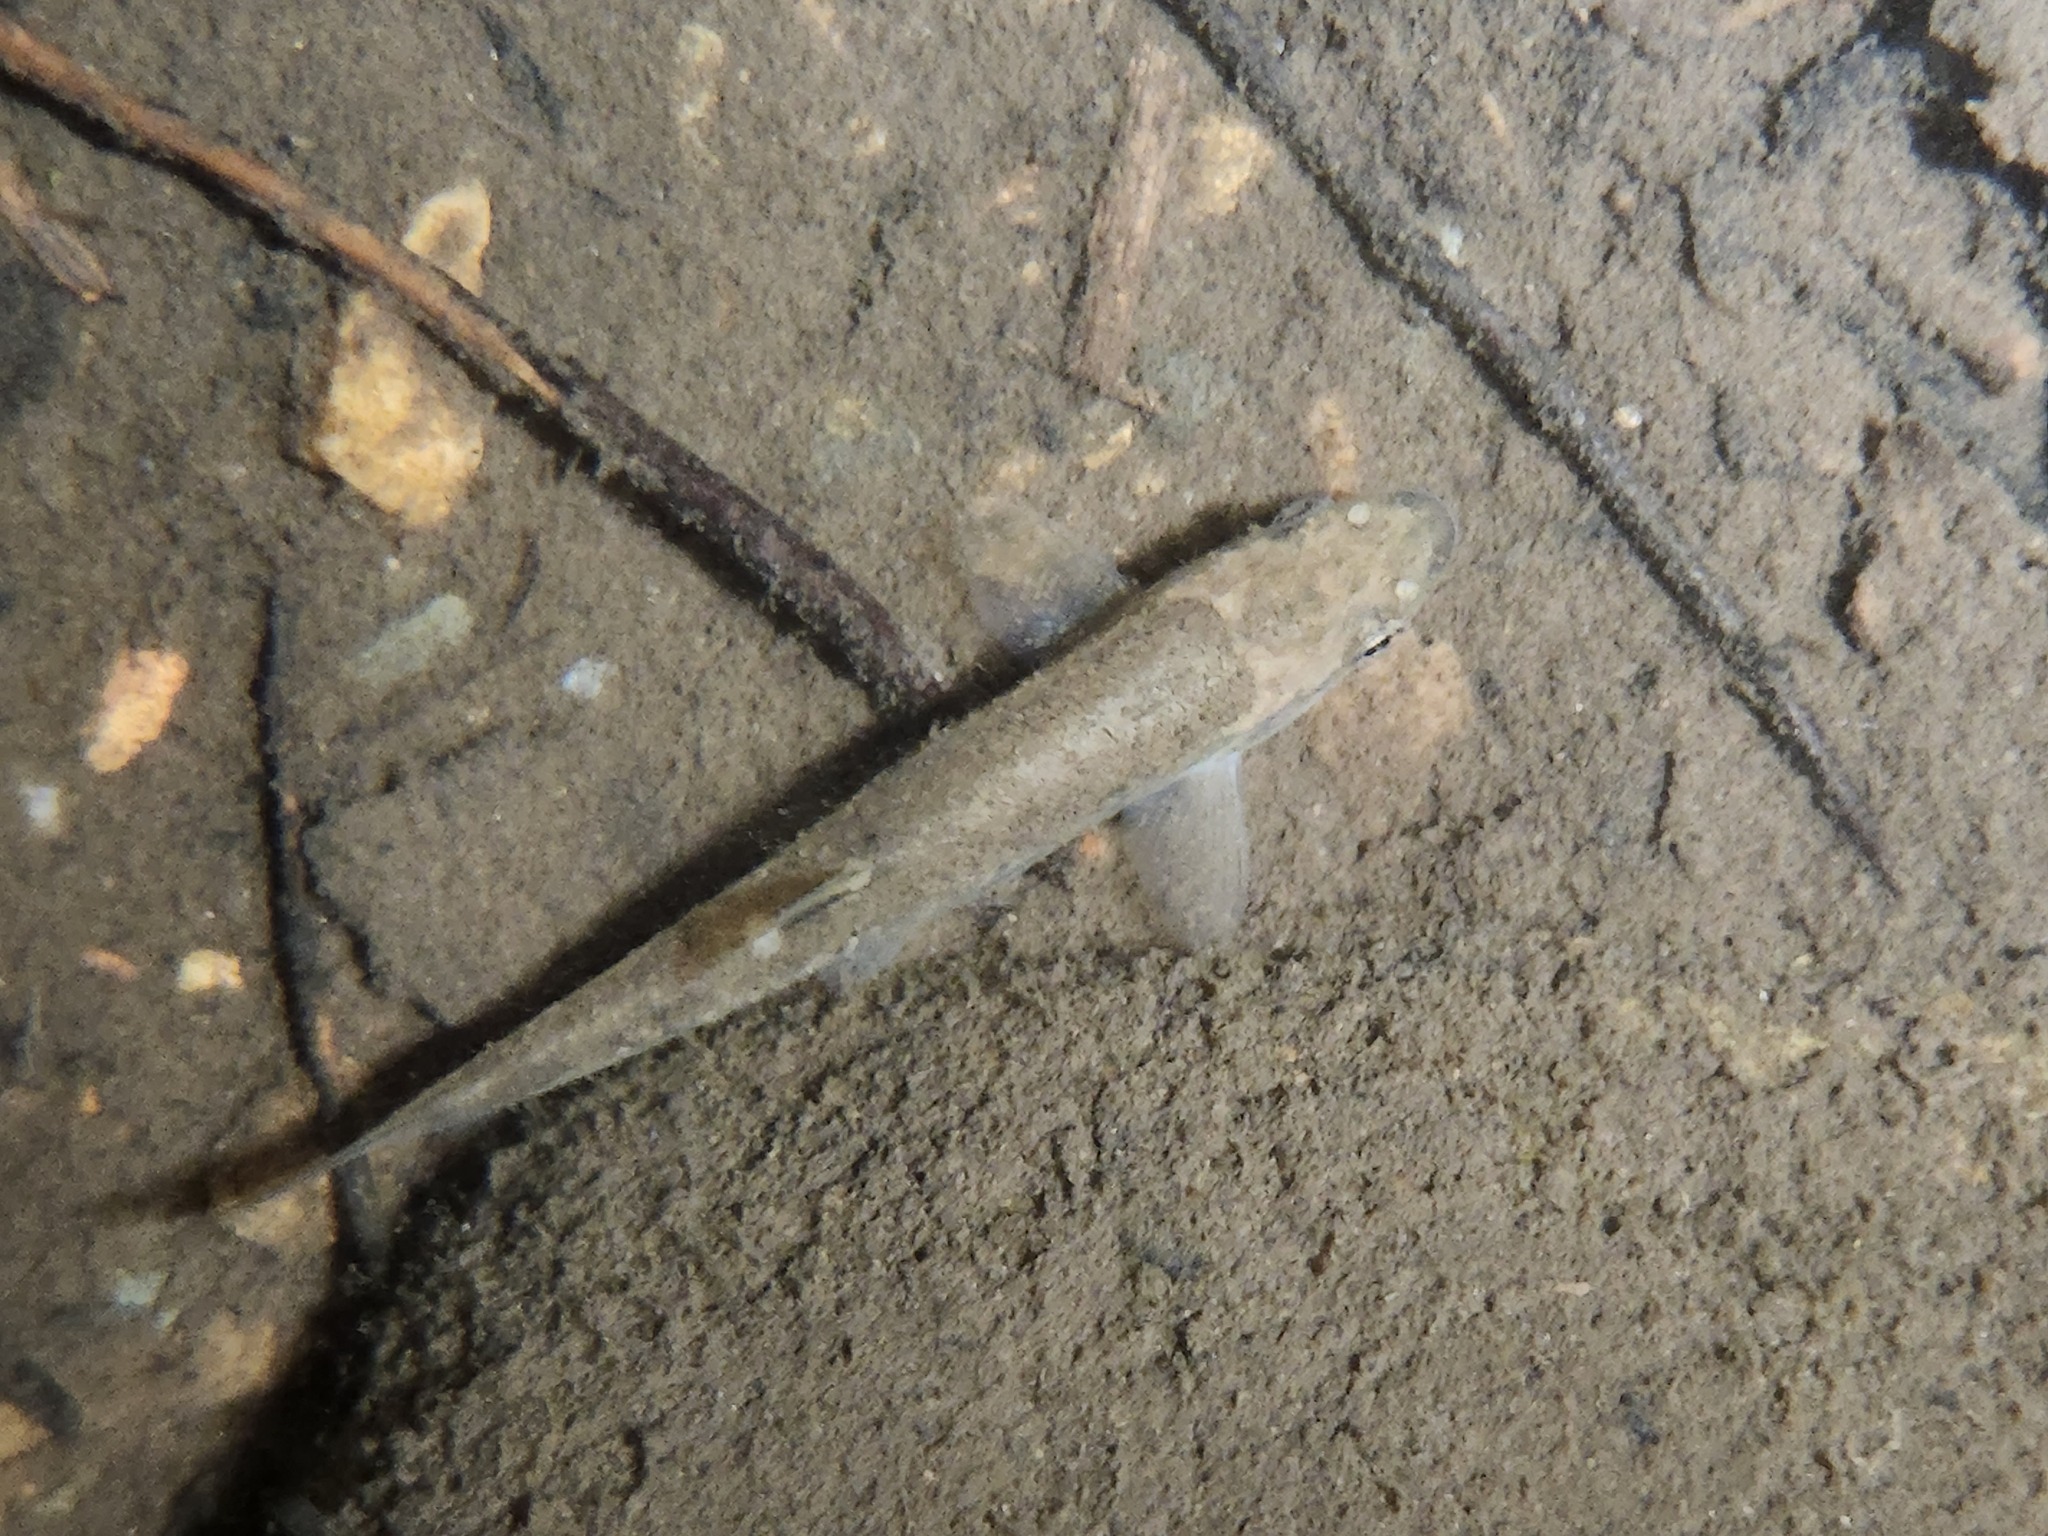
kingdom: Animalia
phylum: Chordata
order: Cypriniformes
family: Cyprinidae
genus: Rhinichthys
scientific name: Rhinichthys cataractae
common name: Longnose dace
